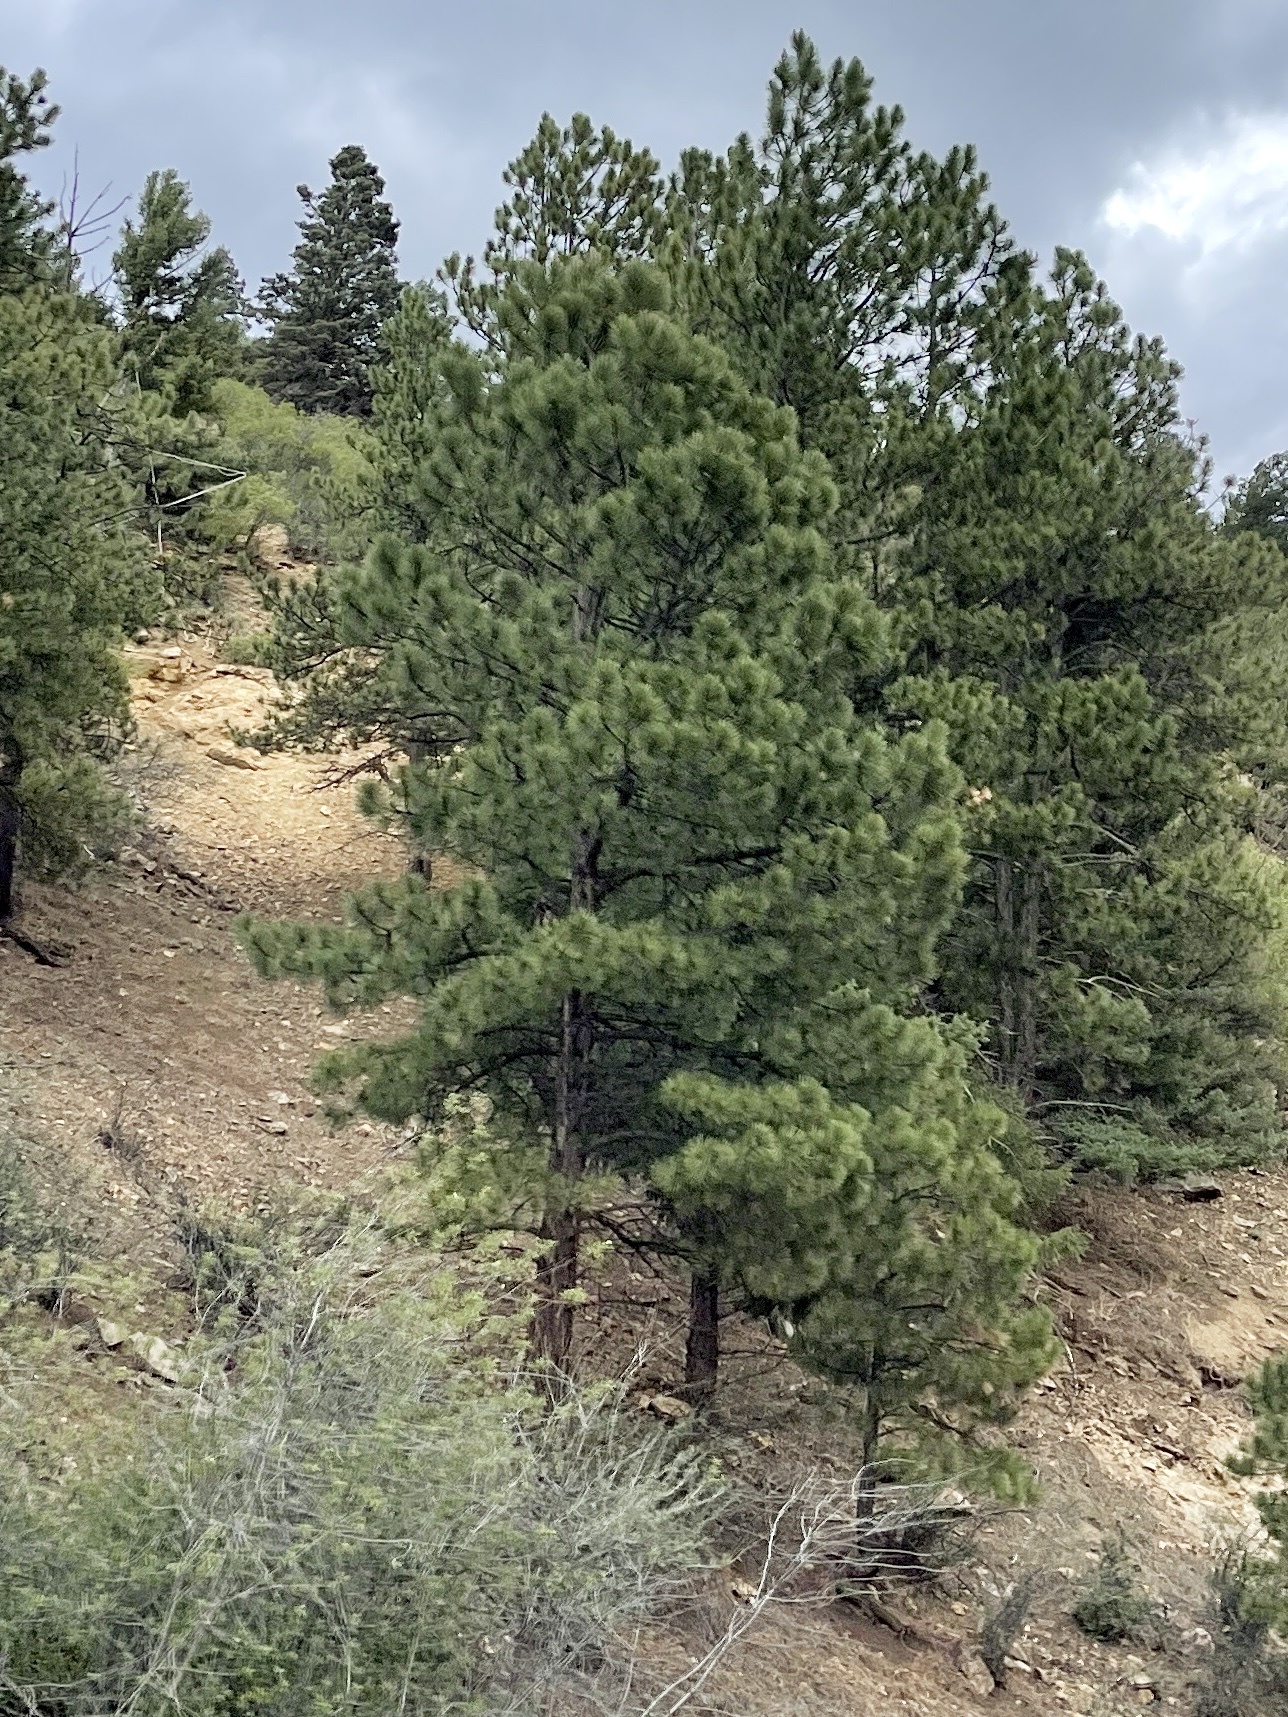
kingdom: Plantae
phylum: Tracheophyta
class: Pinopsida
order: Pinales
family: Pinaceae
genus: Pinus
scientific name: Pinus ponderosa
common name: Western yellow-pine
